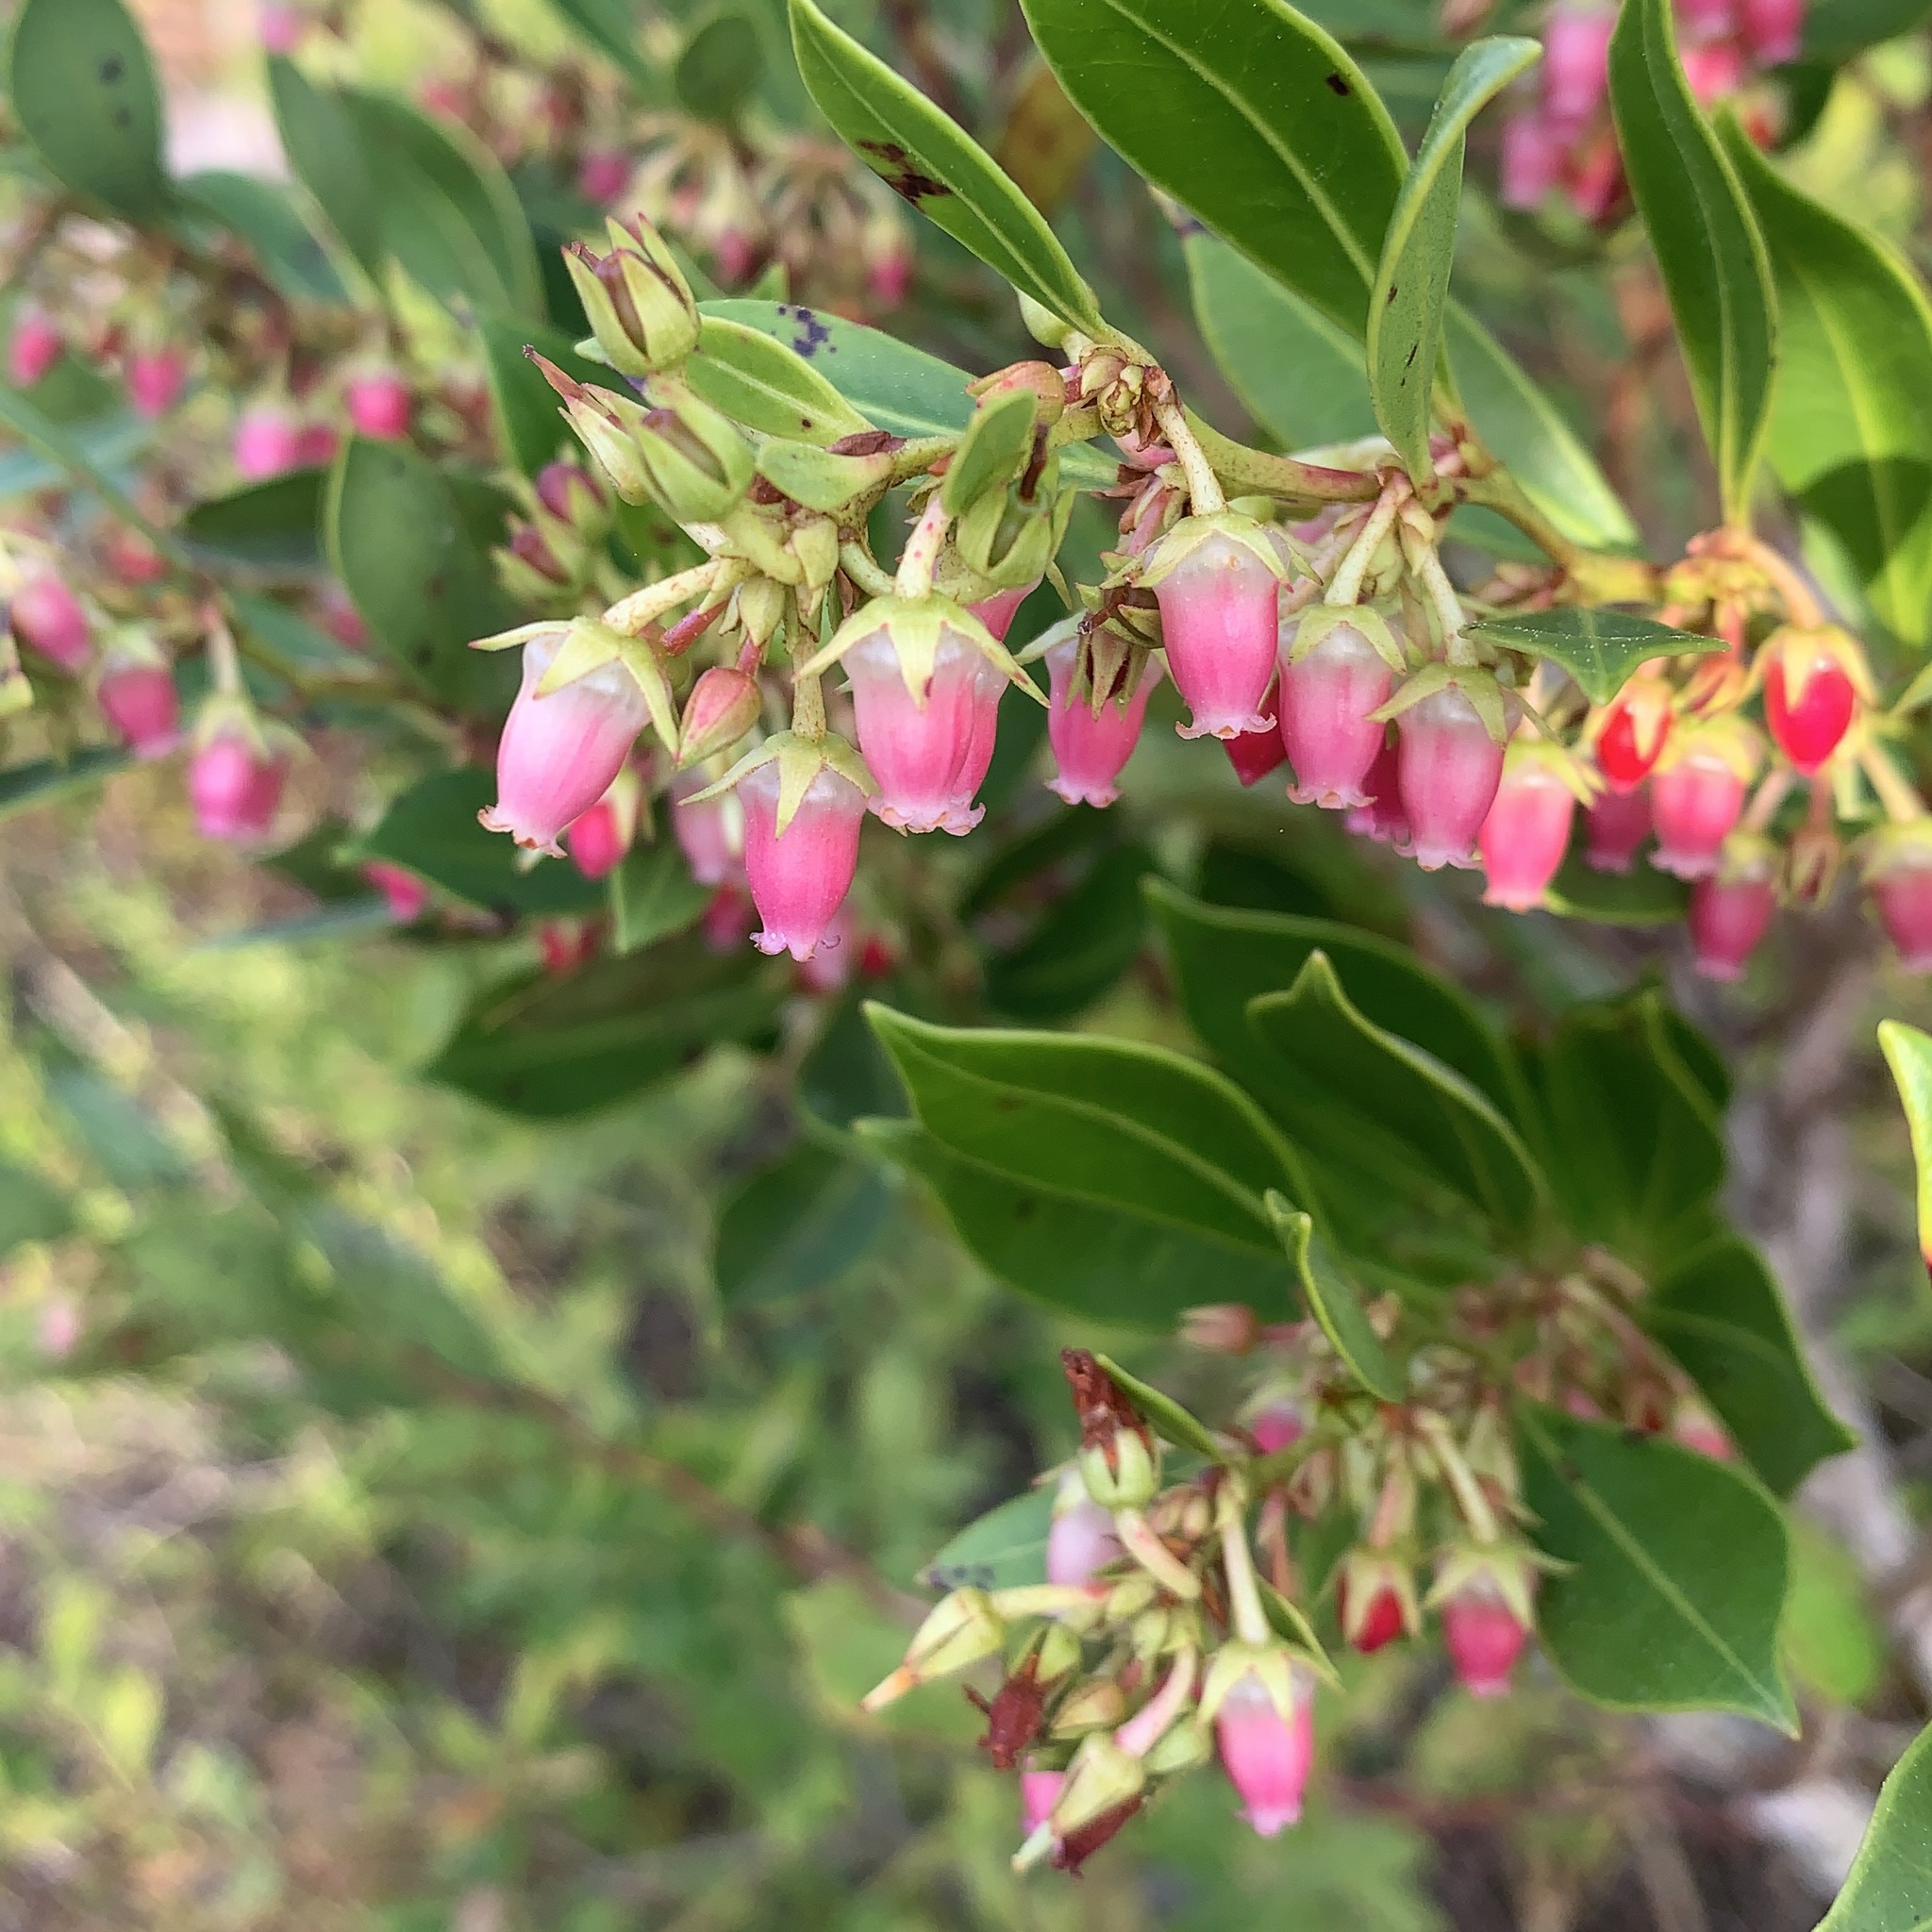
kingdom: Plantae
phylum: Tracheophyta
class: Magnoliopsida
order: Ericales
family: Ericaceae
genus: Lyonia
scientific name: Lyonia lucida
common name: Fetterbush
